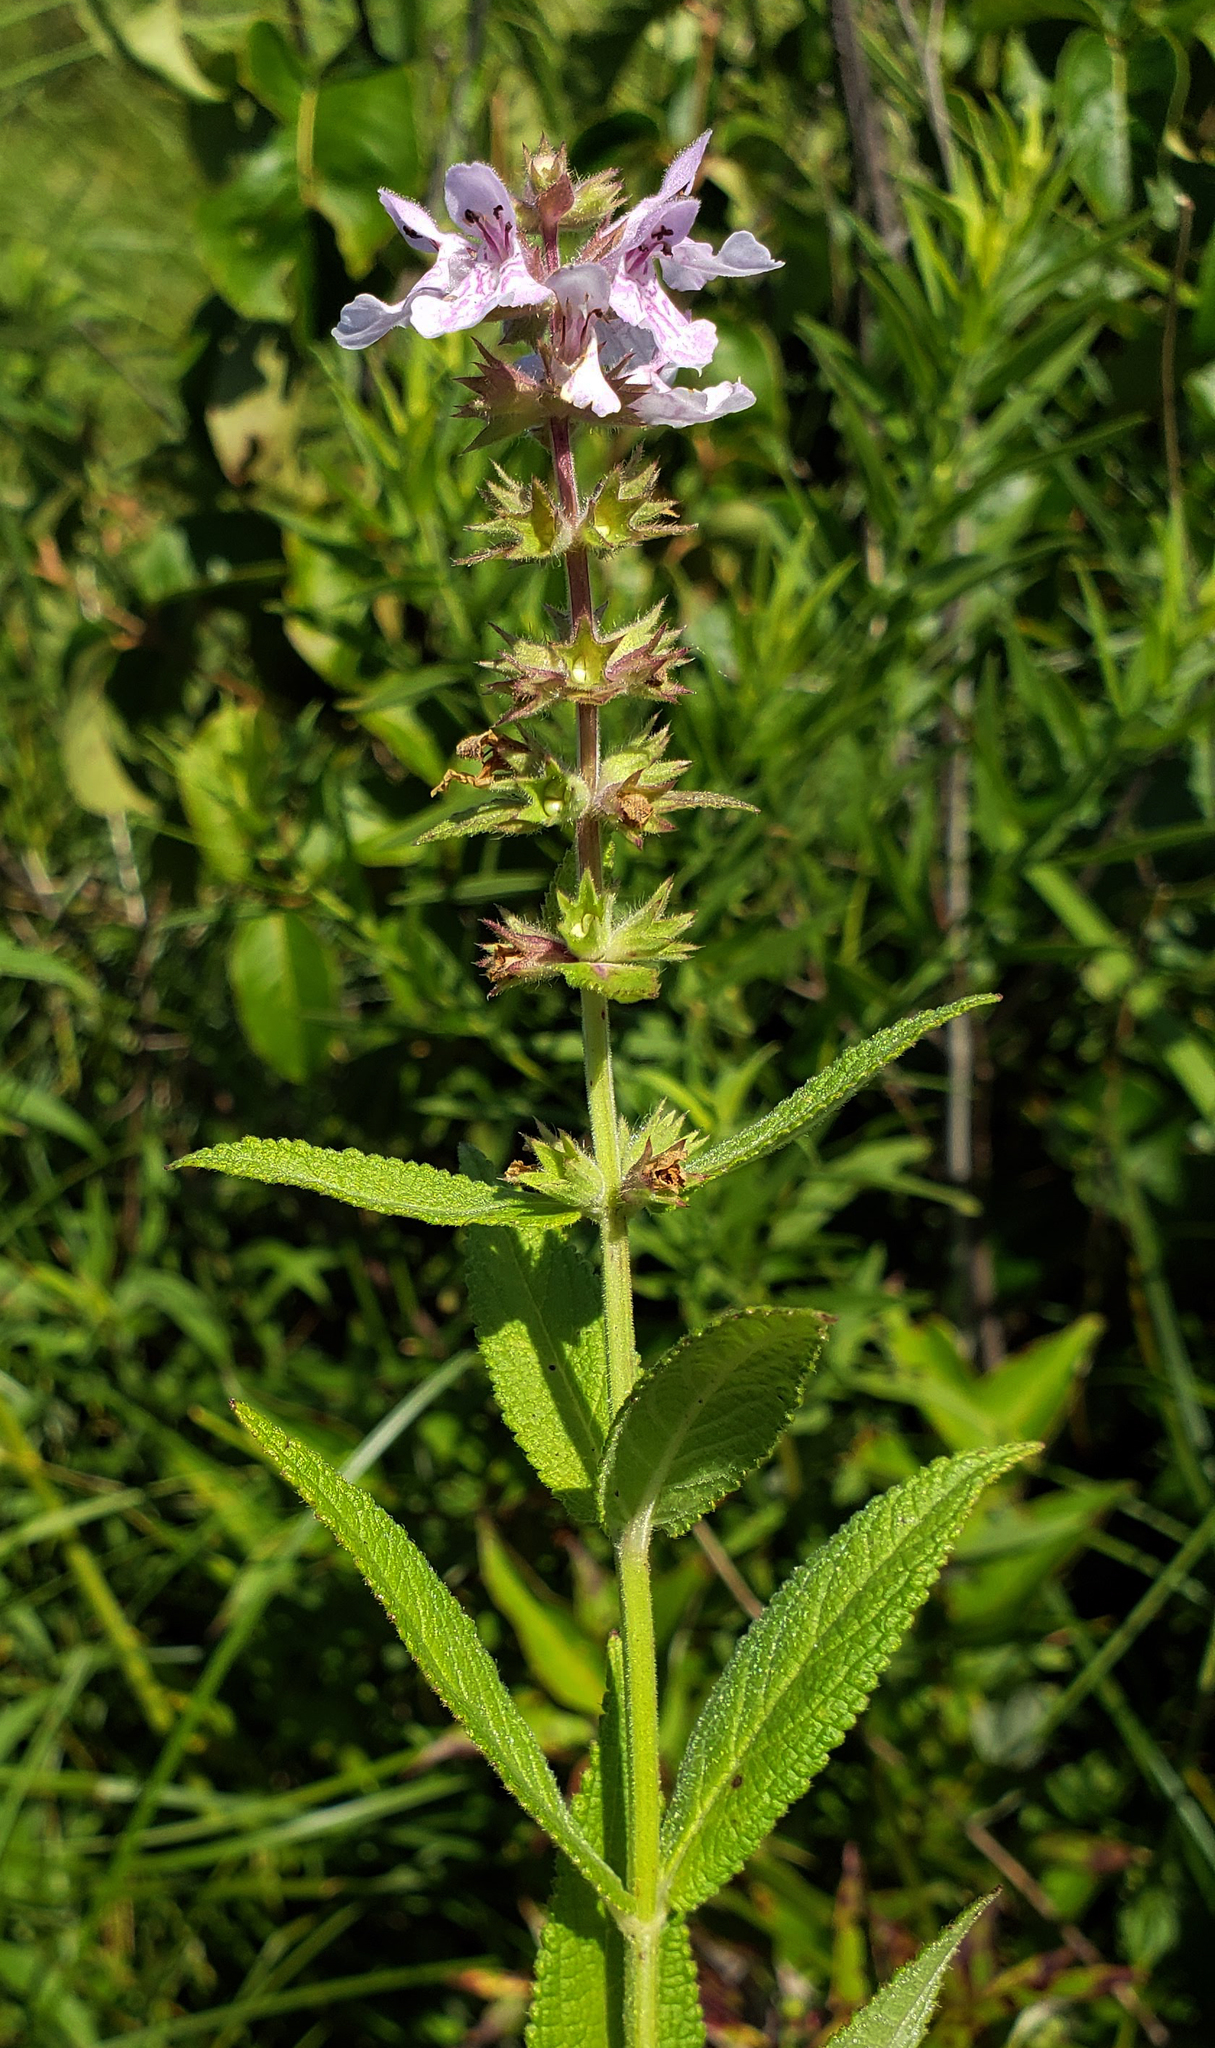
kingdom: Plantae
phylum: Tracheophyta
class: Magnoliopsida
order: Lamiales
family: Lamiaceae
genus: Stachys
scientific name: Stachys pilosa
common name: Hairy hedge-nettle
